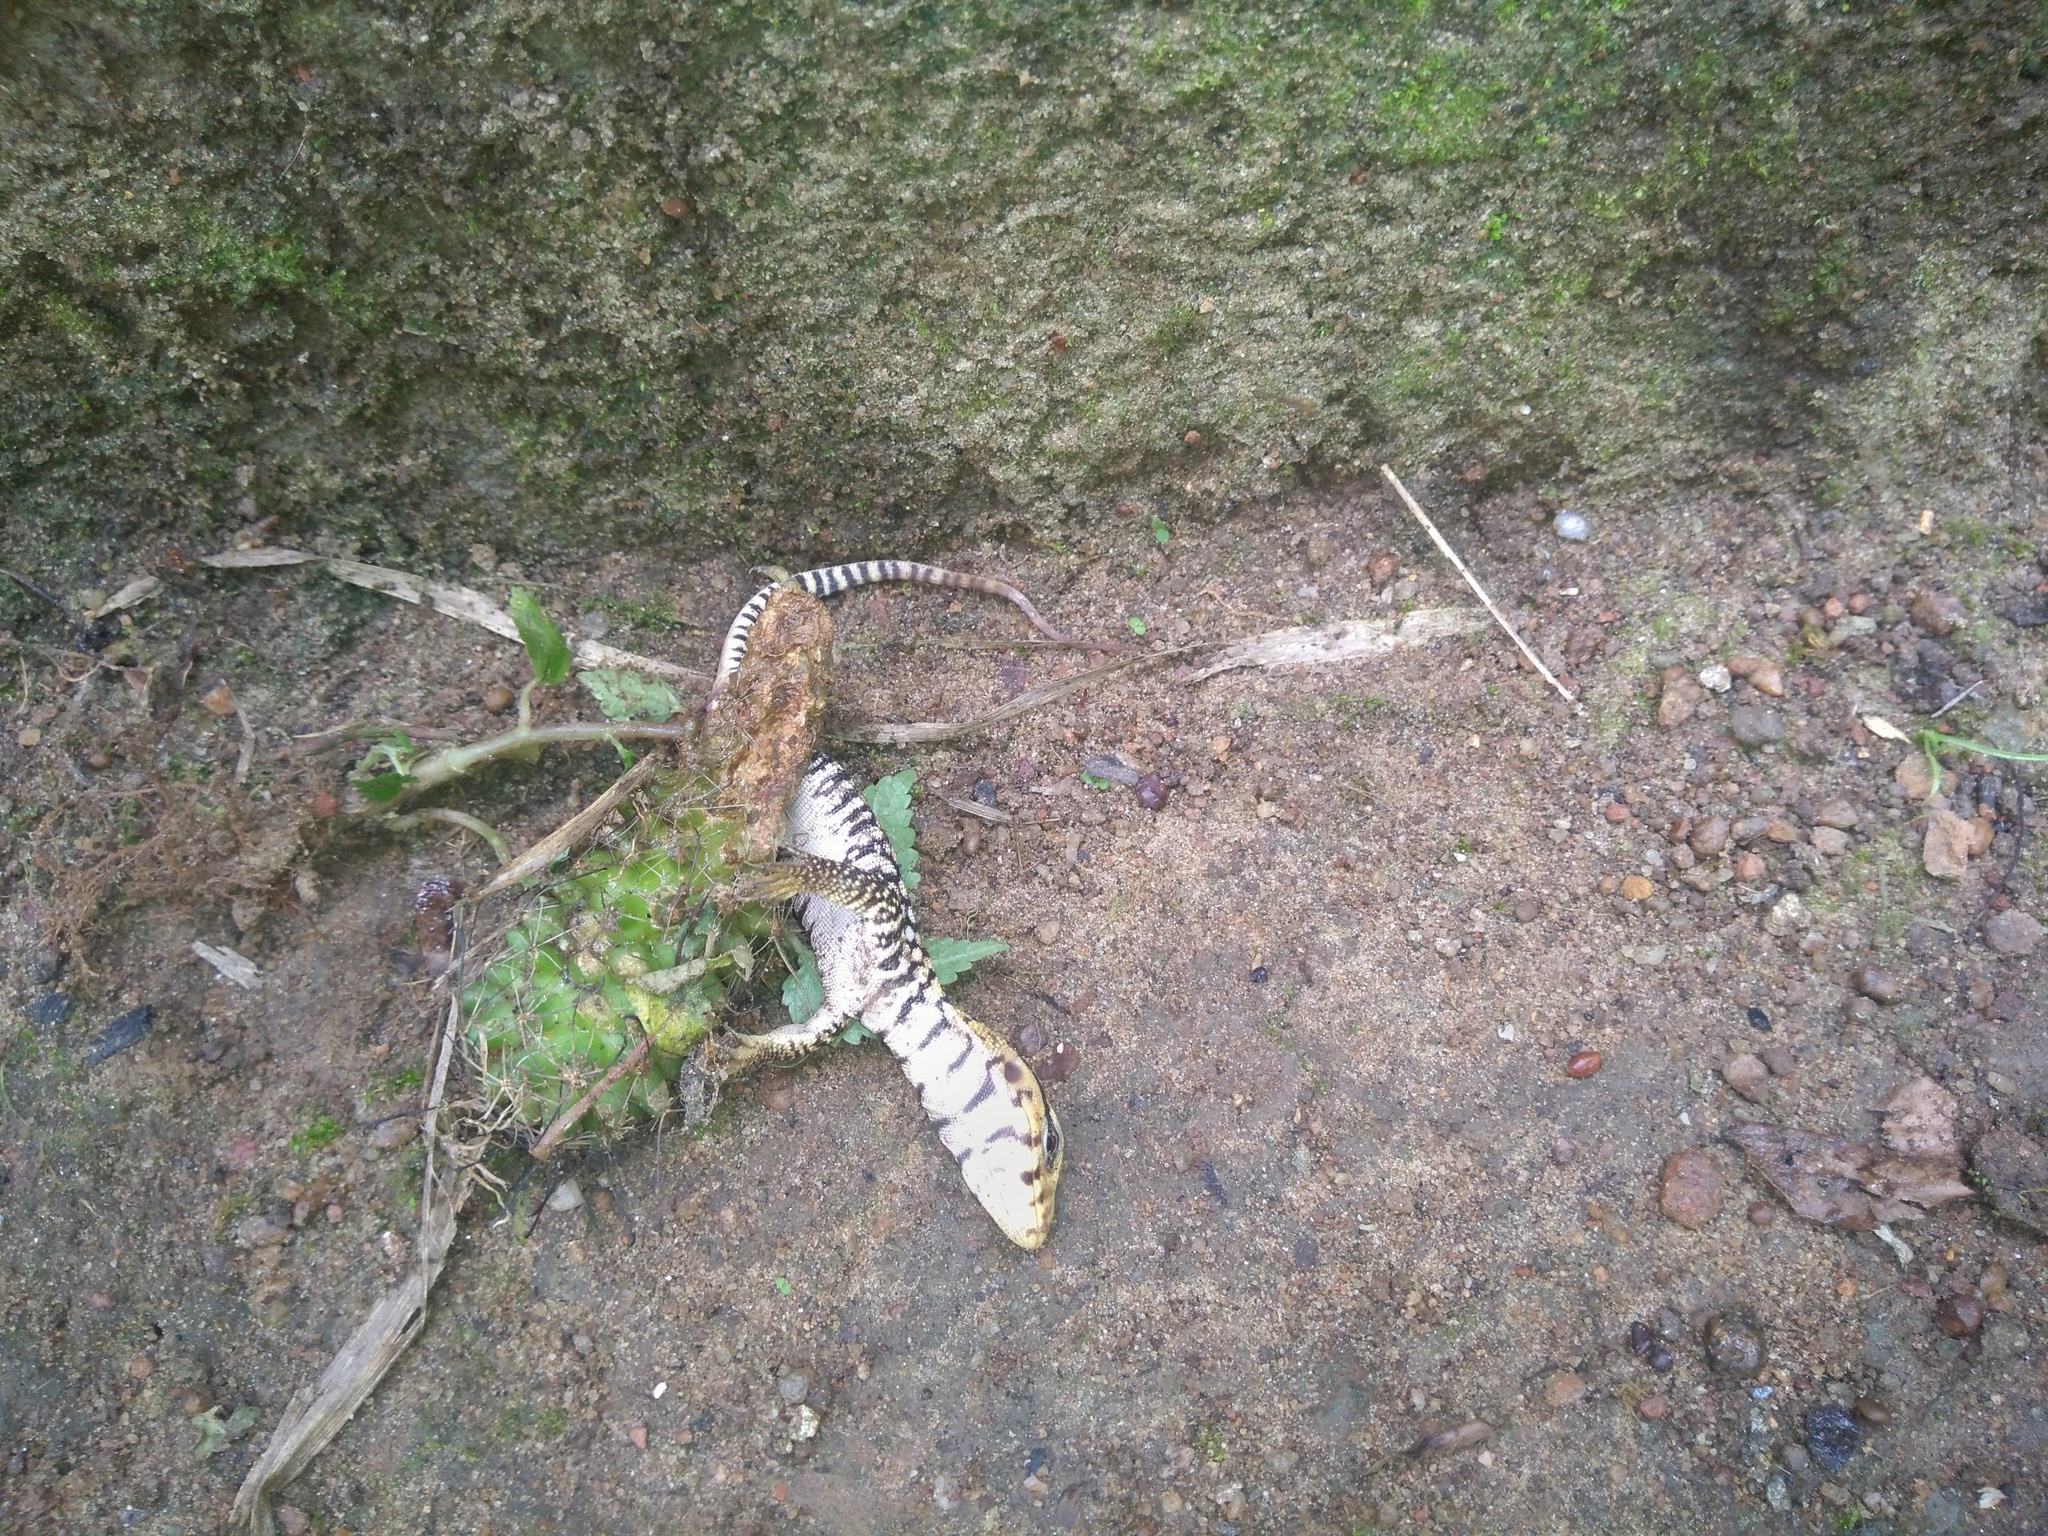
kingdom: Animalia
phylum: Chordata
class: Squamata
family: Varanidae
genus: Varanus
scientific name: Varanus flavescens
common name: Yellow monitor
